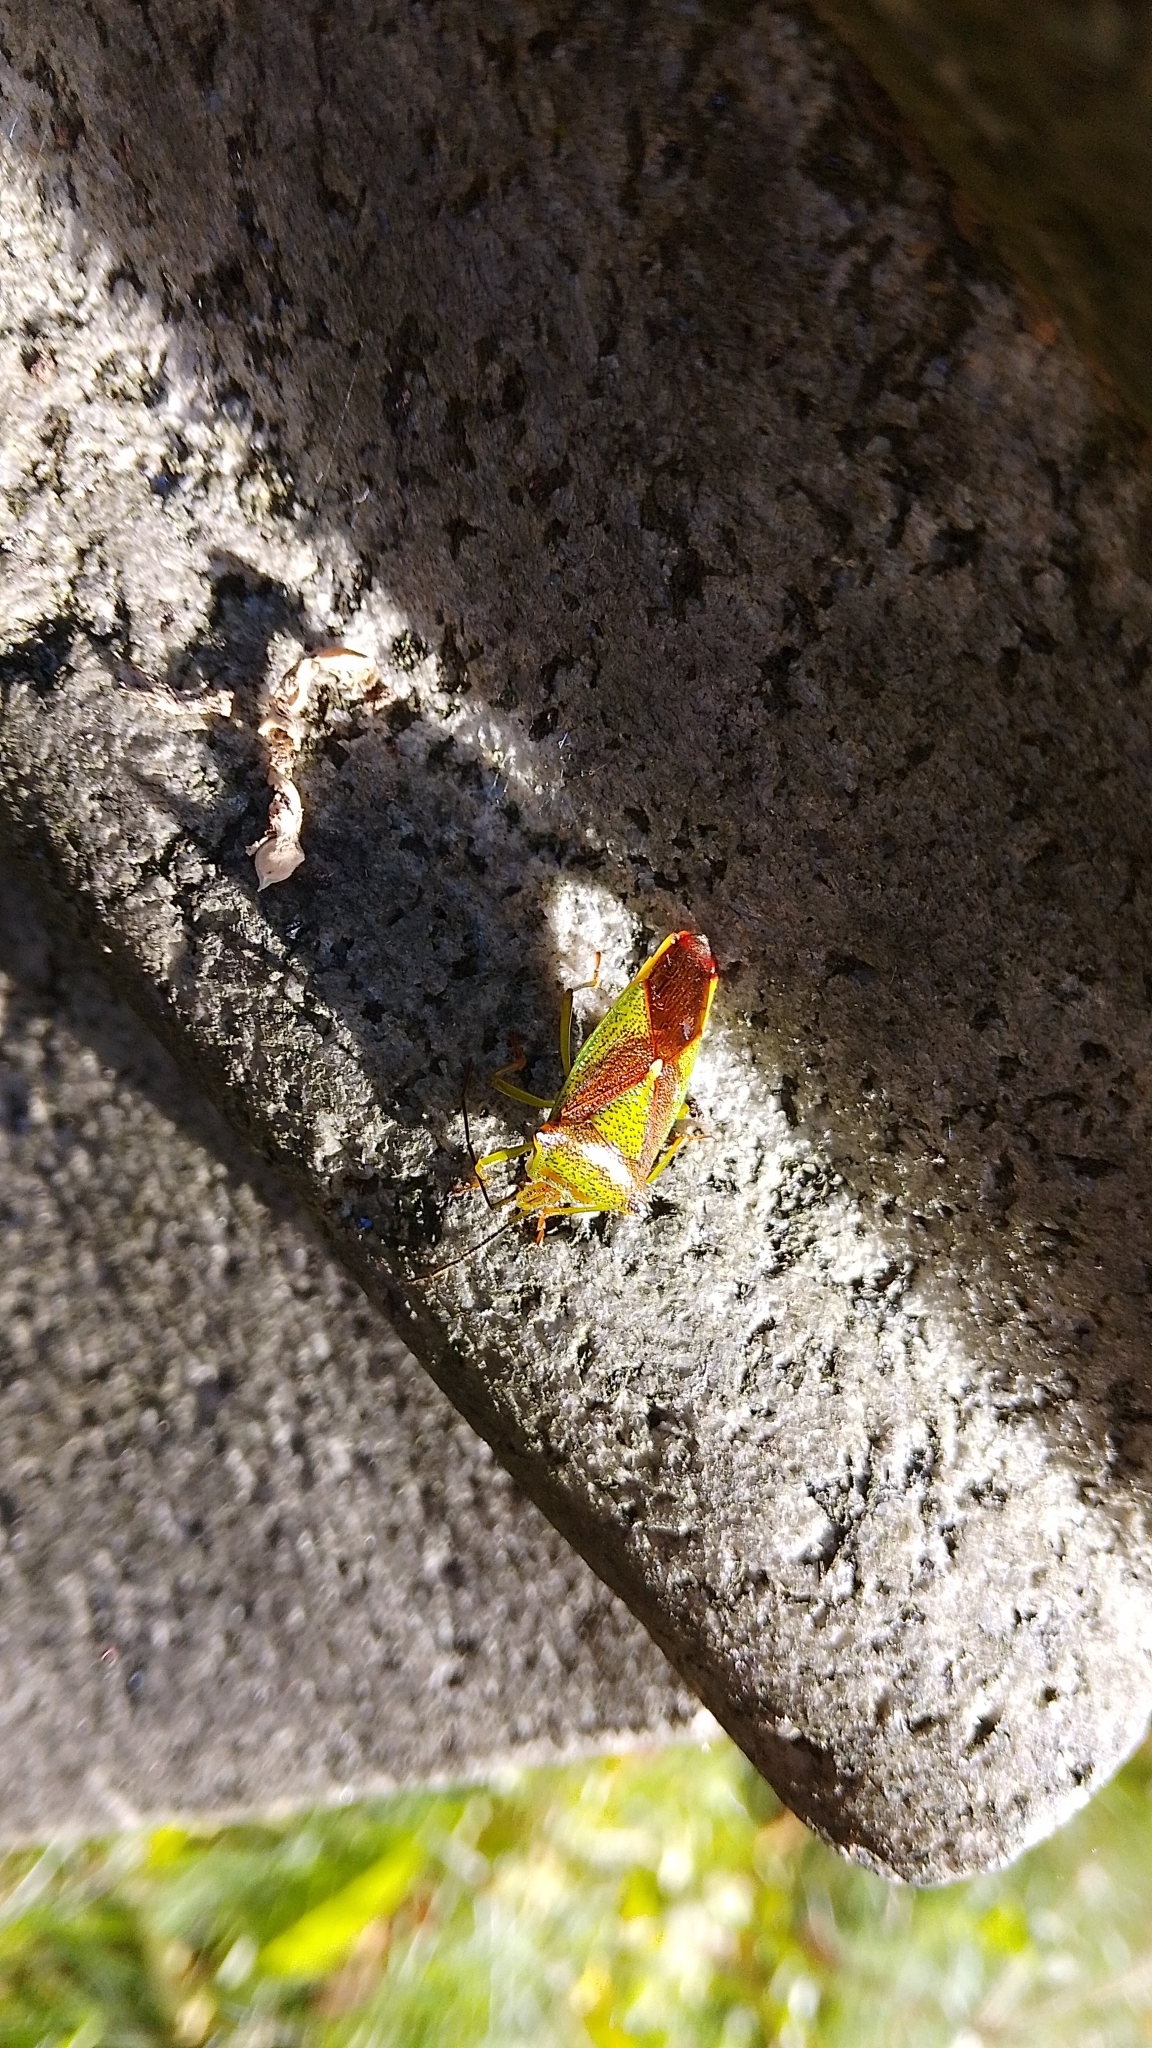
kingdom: Animalia
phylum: Arthropoda
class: Insecta
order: Hemiptera
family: Acanthosomatidae
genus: Acanthosoma
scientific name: Acanthosoma haemorrhoidale
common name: Hawthorn shieldbug
